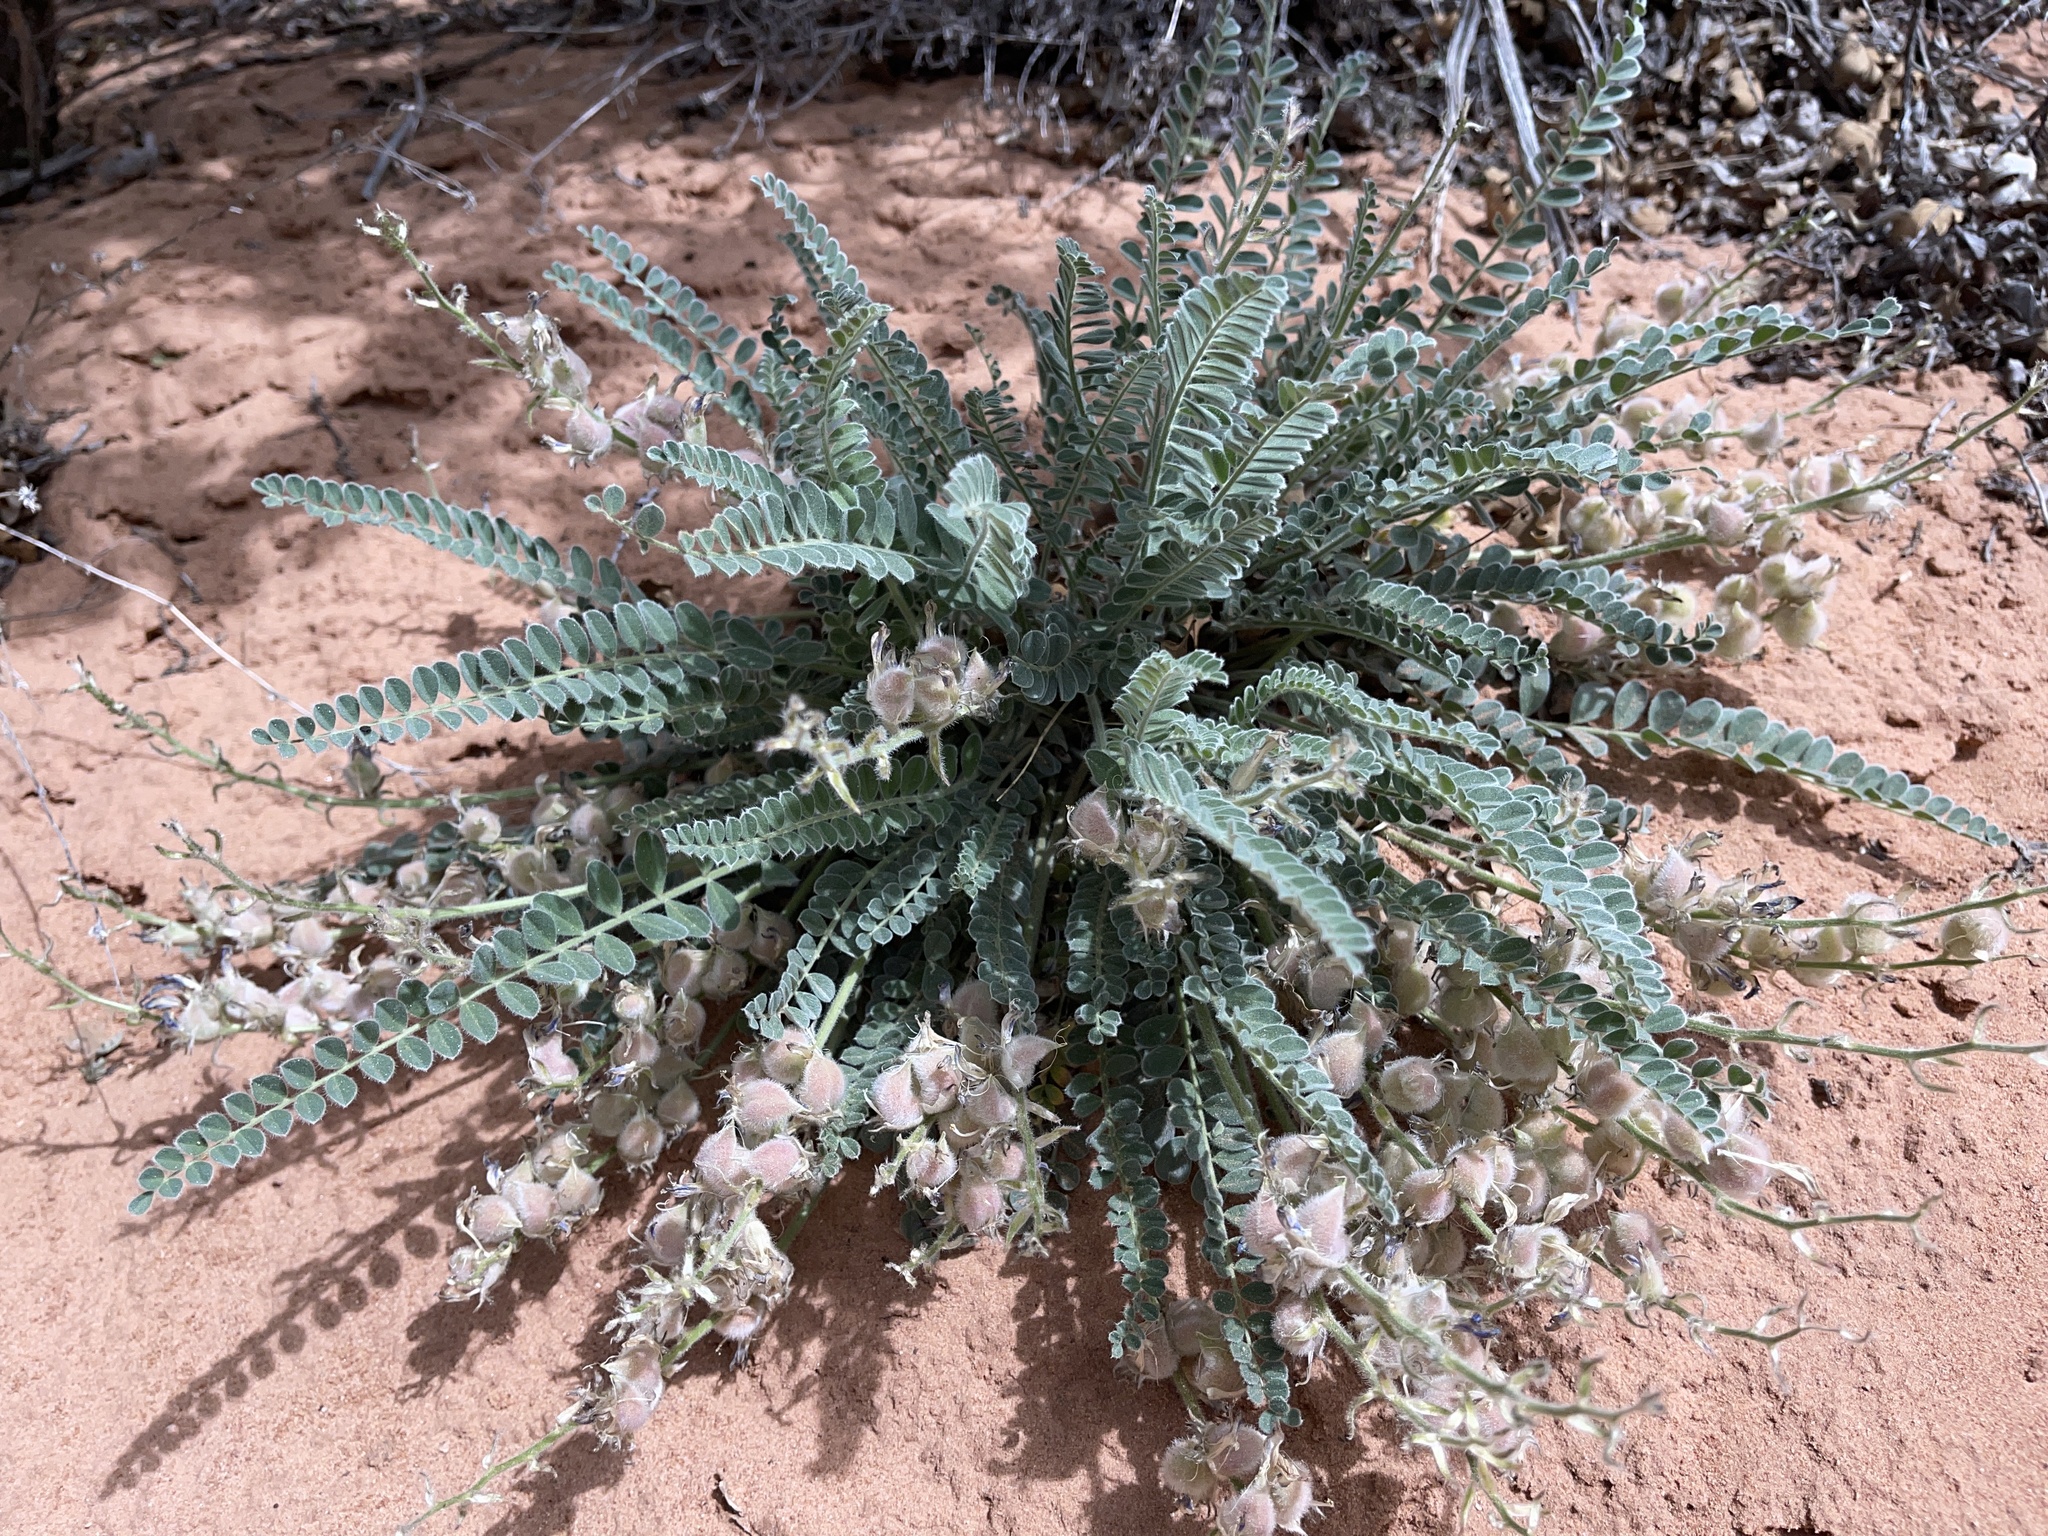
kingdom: Plantae
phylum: Tracheophyta
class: Magnoliopsida
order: Fabales
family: Fabaceae
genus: Astragalus
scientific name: Astragalus mollissimus
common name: Woolly locoweed
